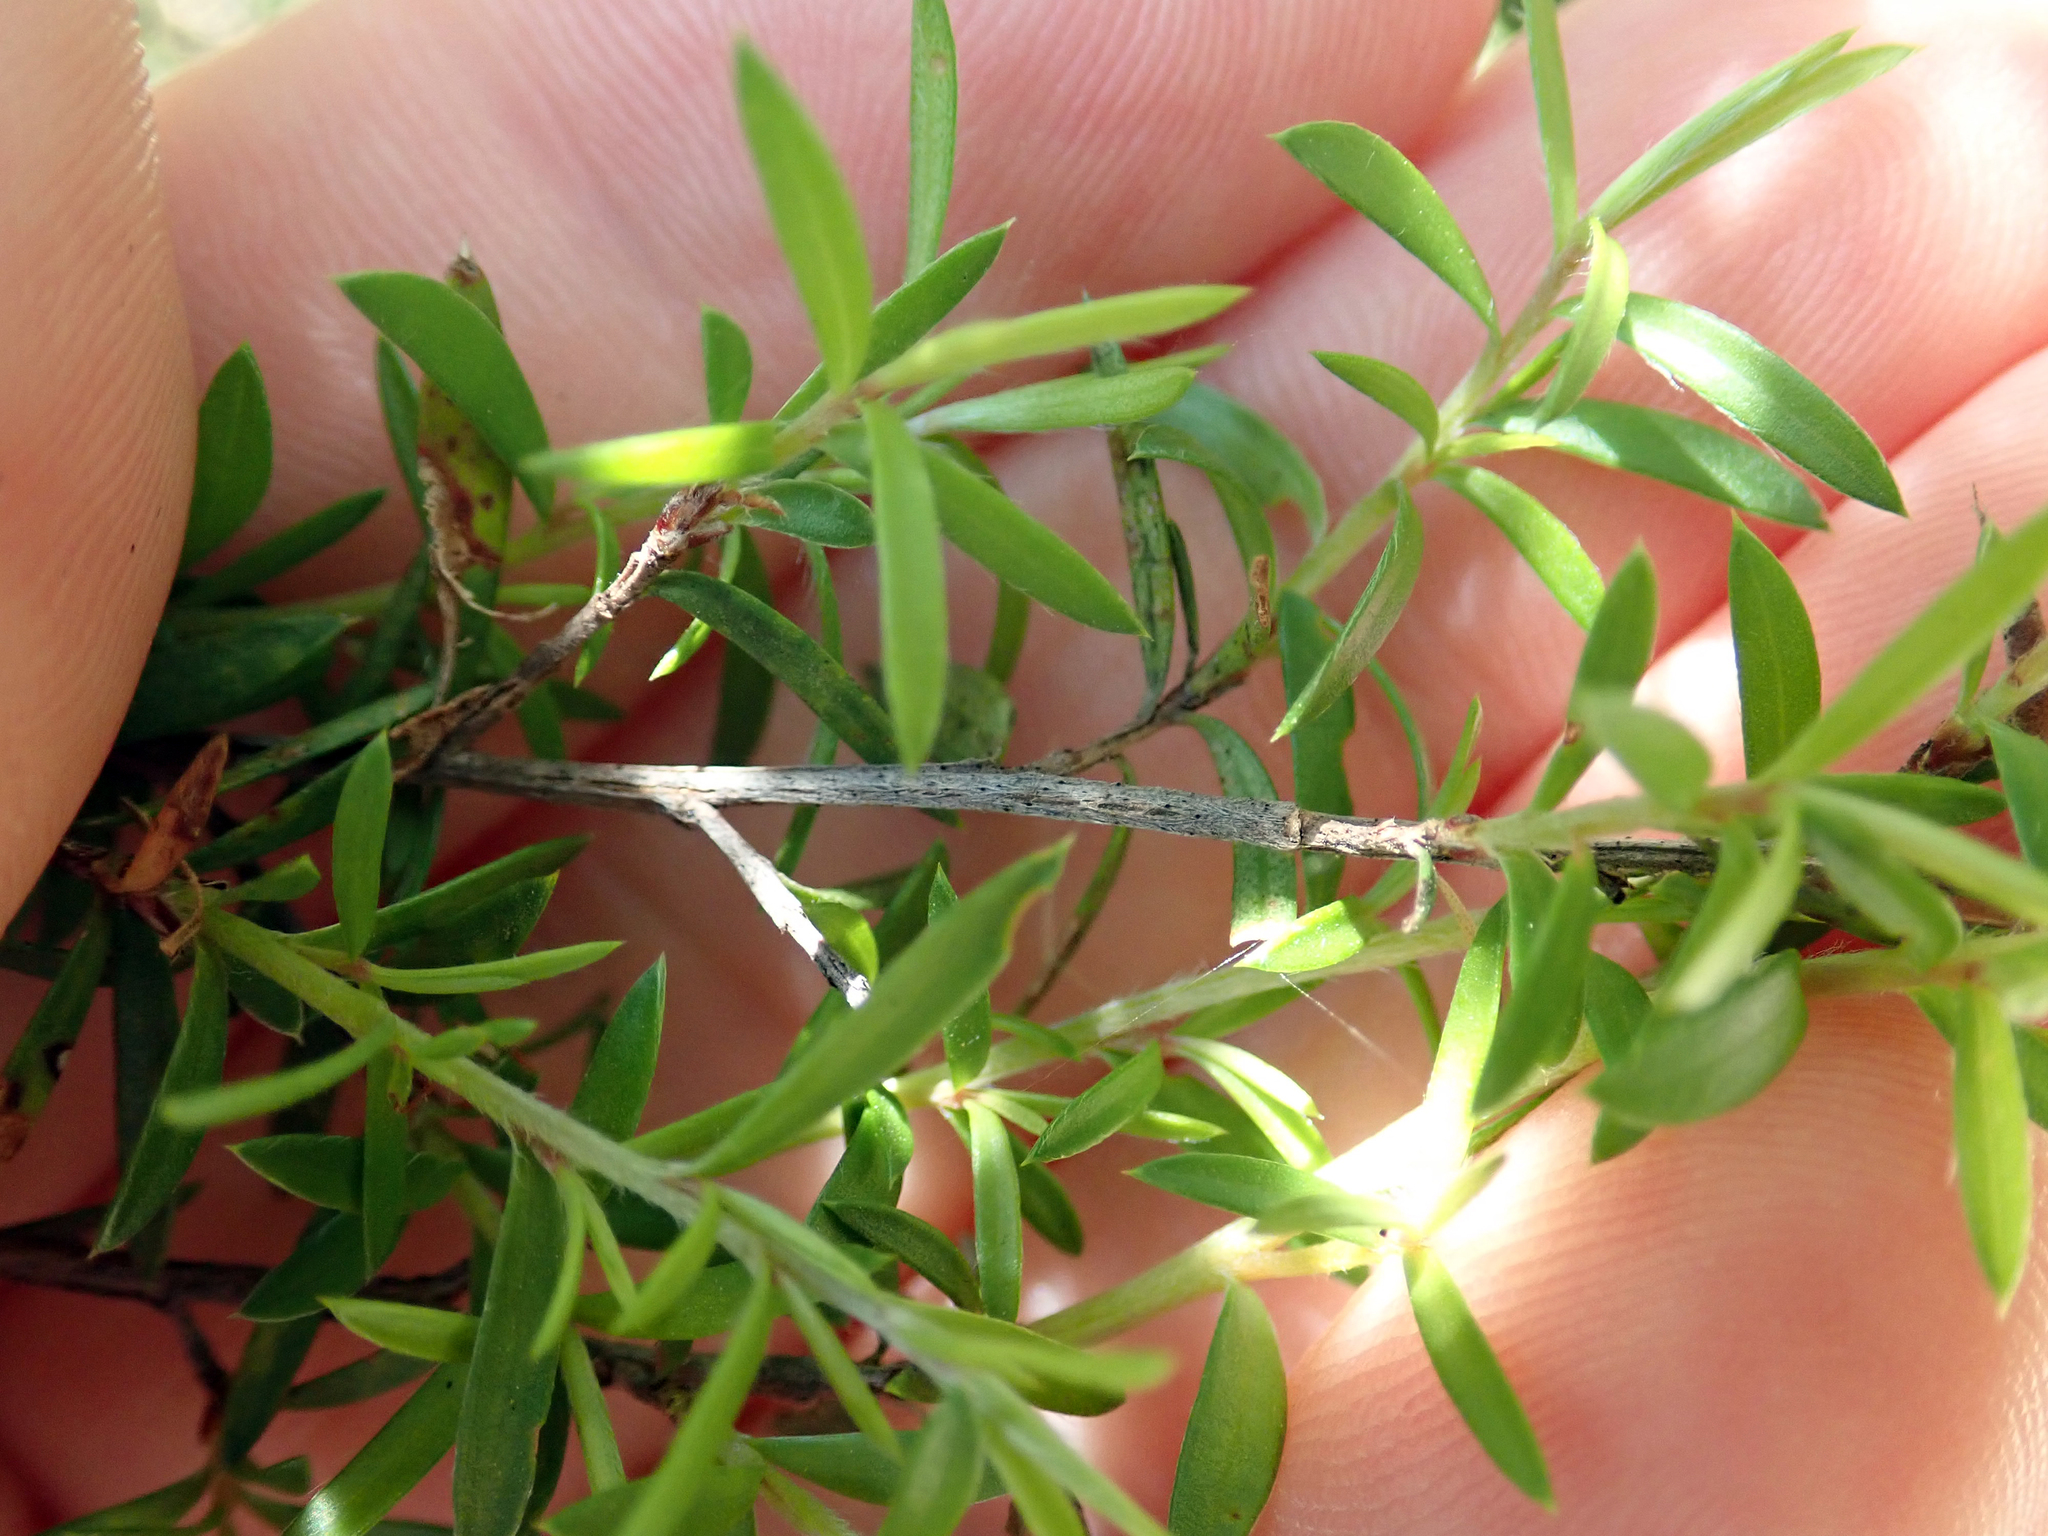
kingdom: Plantae
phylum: Tracheophyta
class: Magnoliopsida
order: Myrtales
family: Myrtaceae
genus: Leptospermum
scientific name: Leptospermum scoparium
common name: Broom tea-tree
